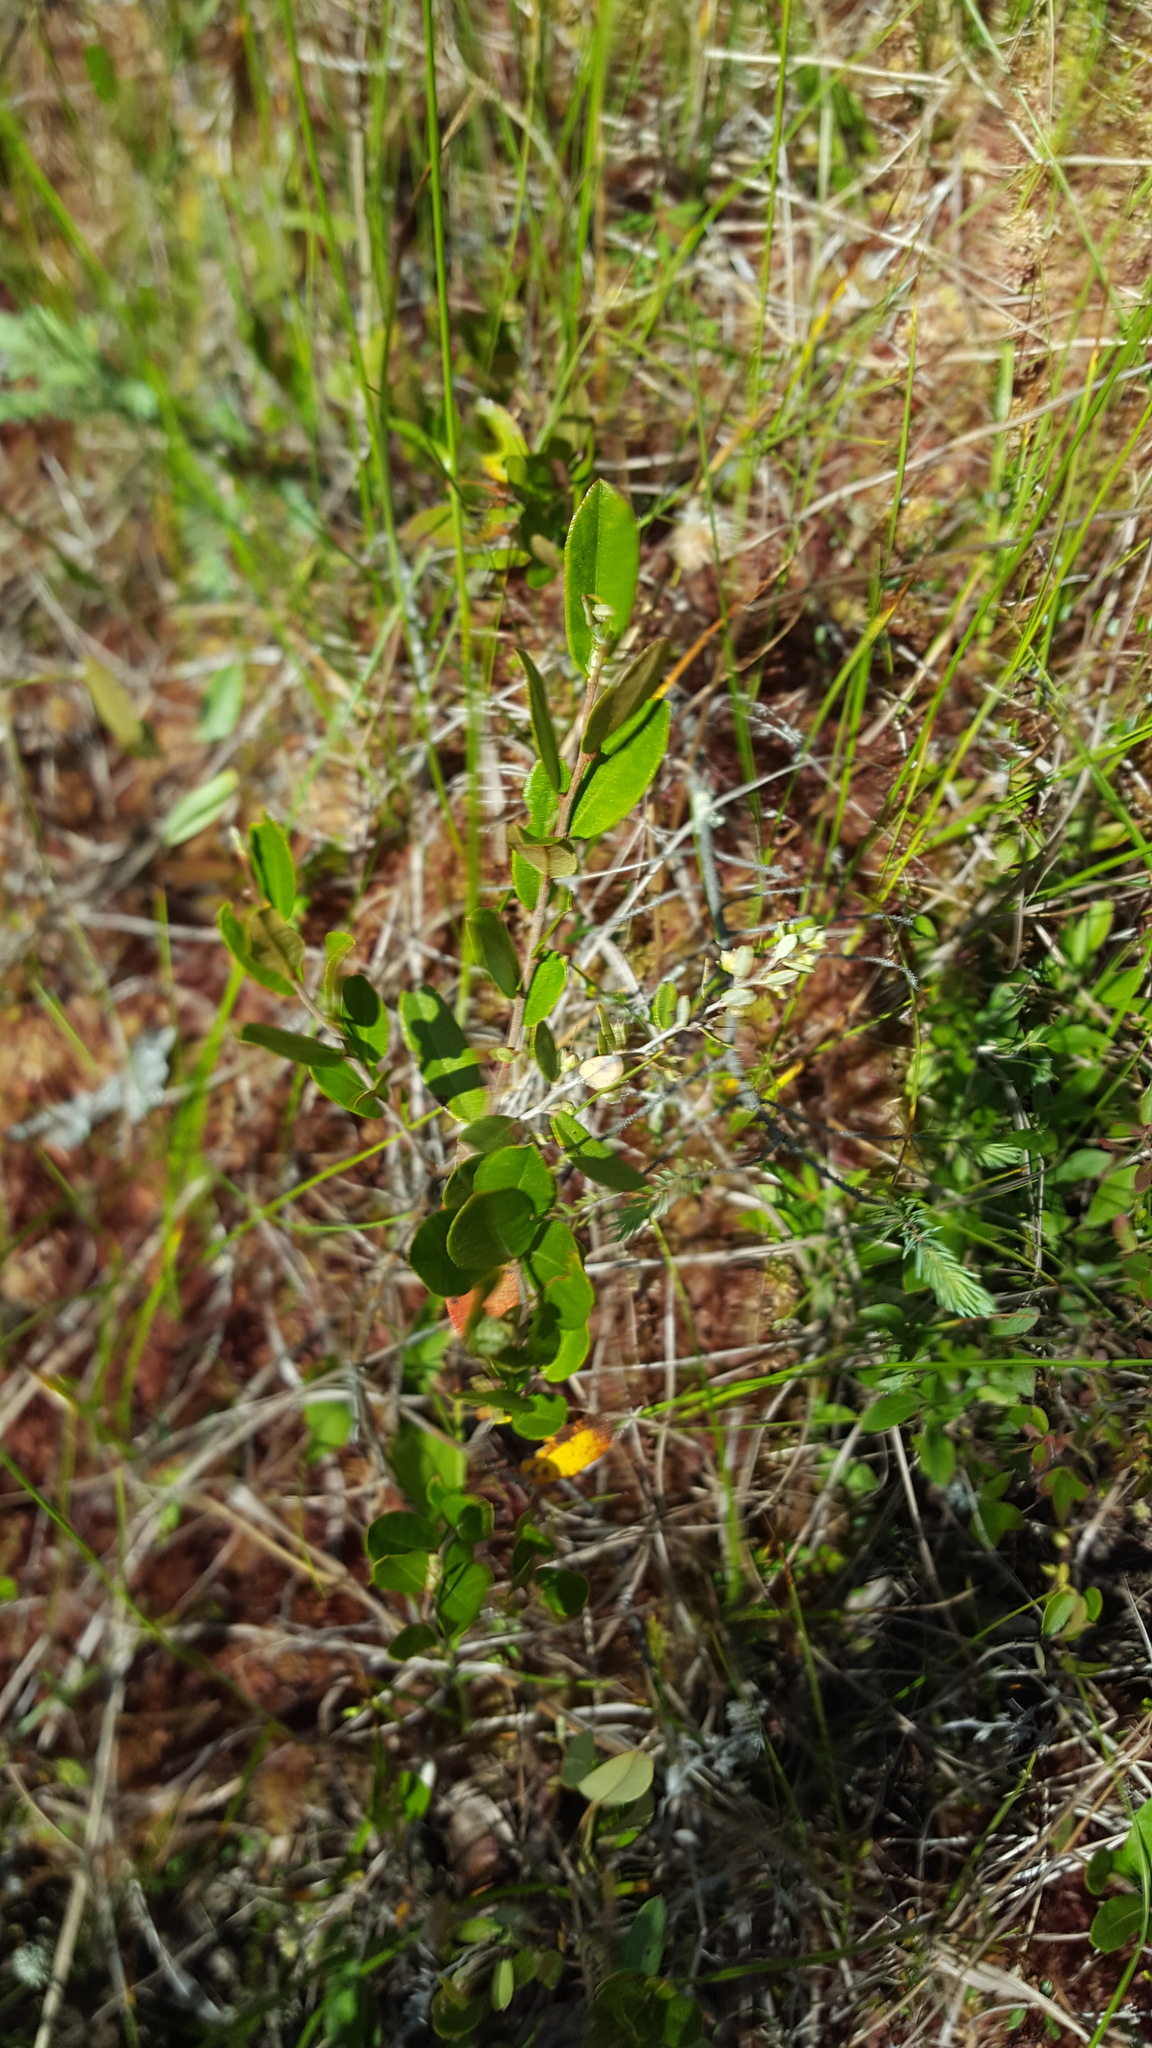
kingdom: Plantae
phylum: Tracheophyta
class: Magnoliopsida
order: Ericales
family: Ericaceae
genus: Chamaedaphne
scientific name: Chamaedaphne calyculata
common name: Leatherleaf
